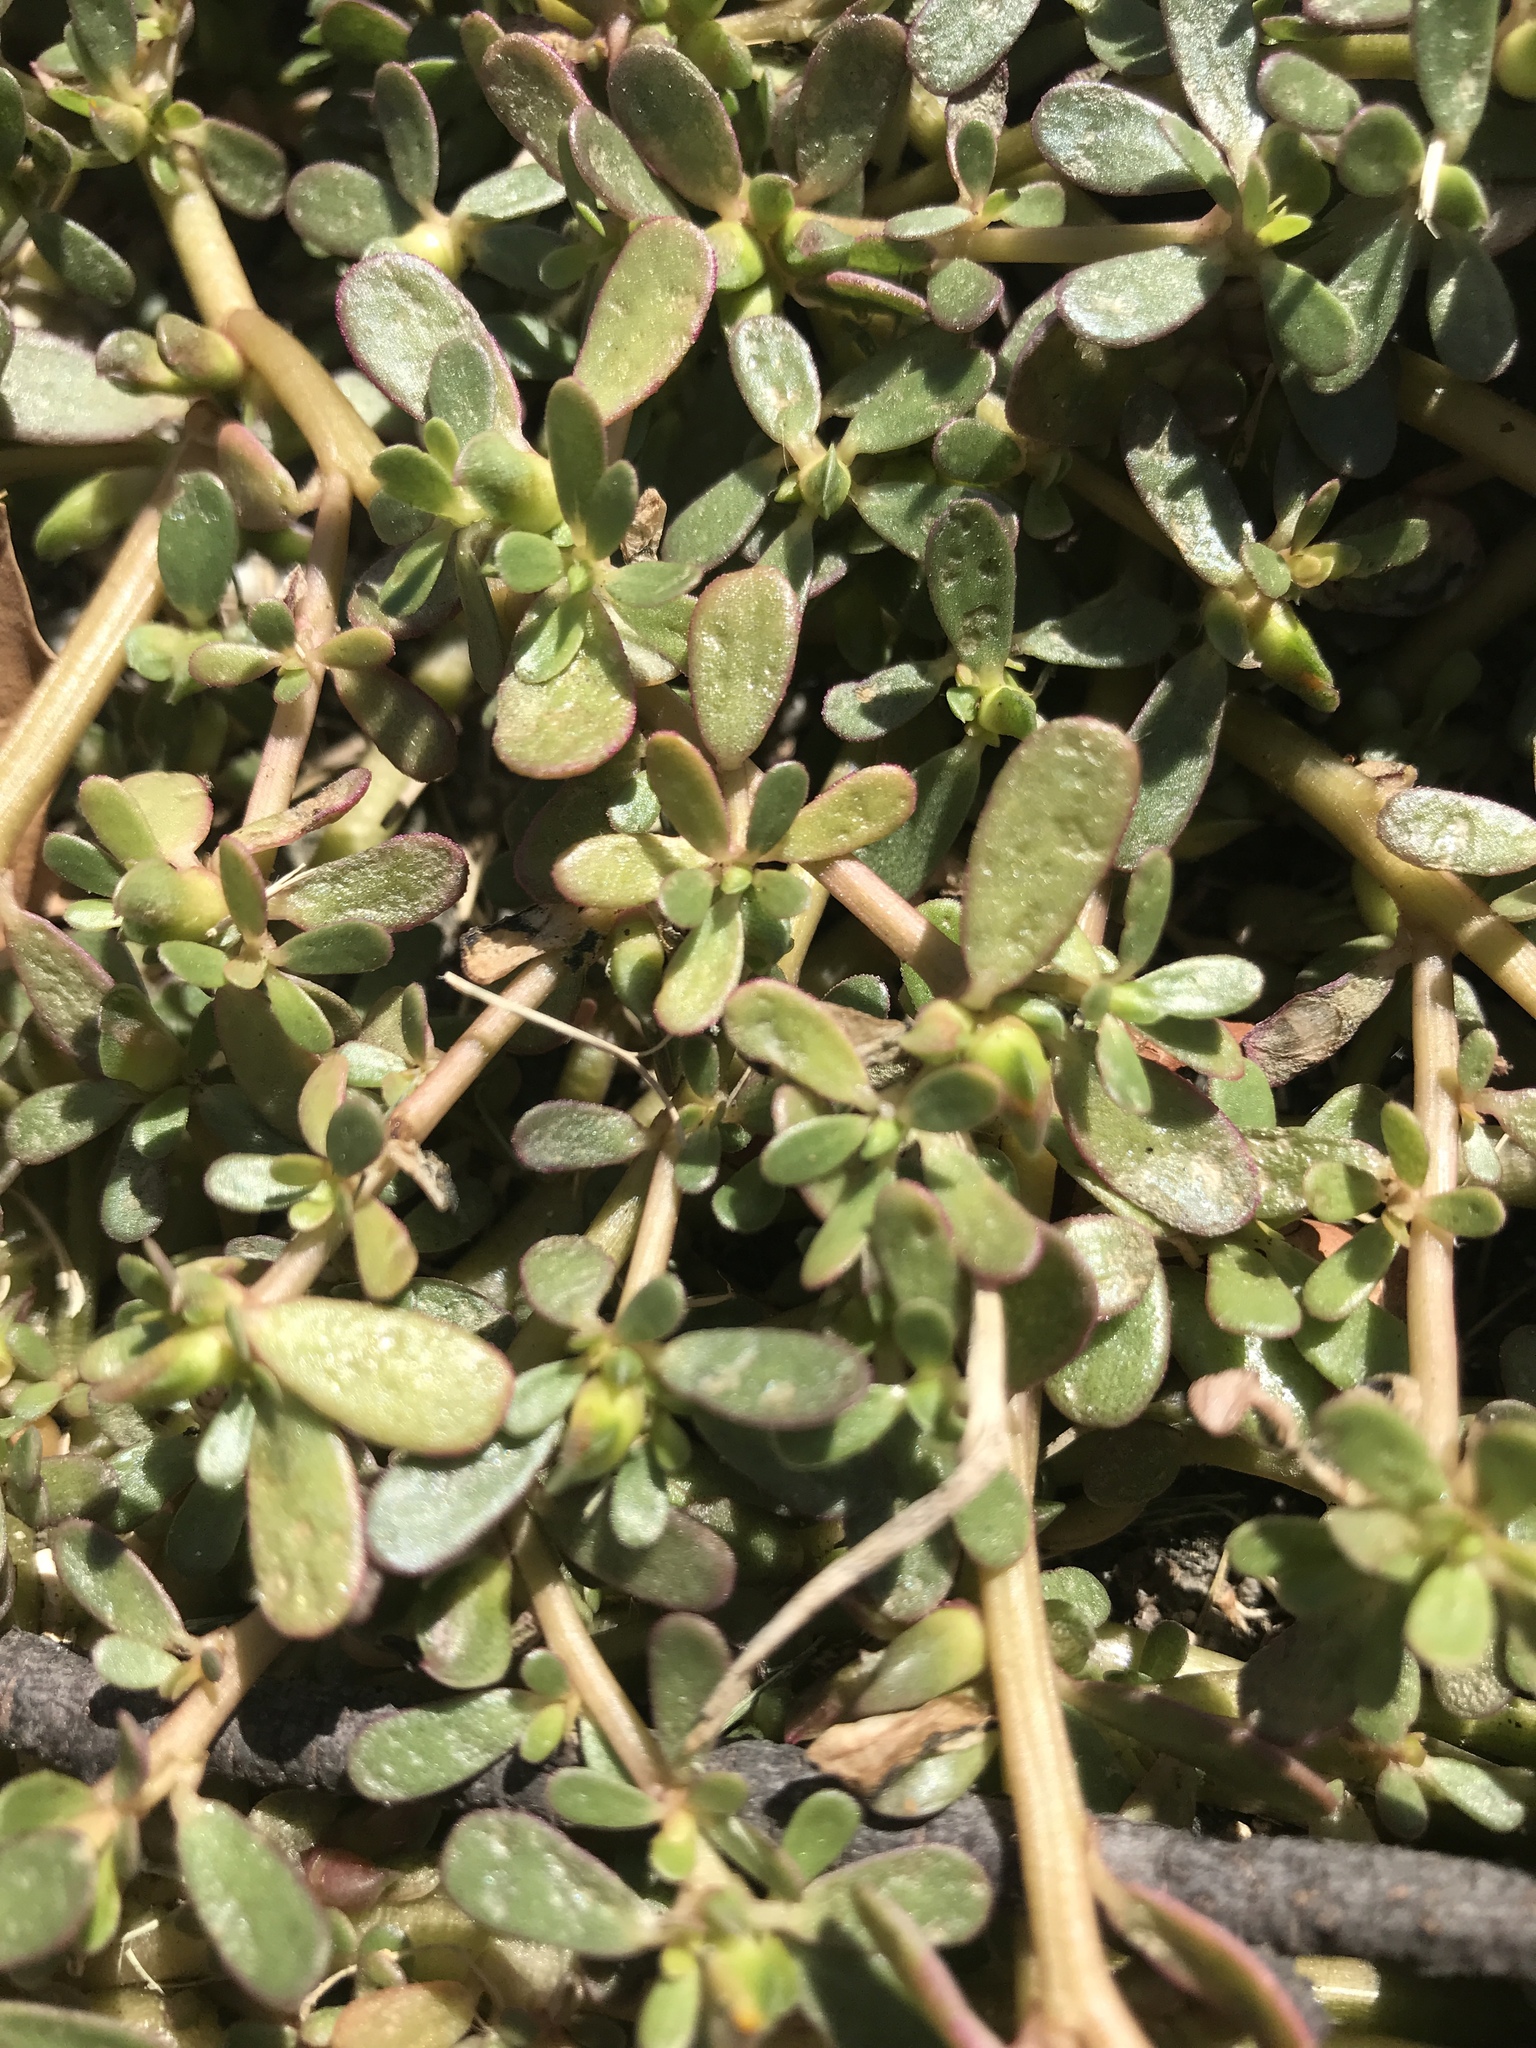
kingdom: Plantae
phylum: Tracheophyta
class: Magnoliopsida
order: Caryophyllales
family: Portulacaceae
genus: Portulaca
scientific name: Portulaca oleracea
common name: Common purslane
